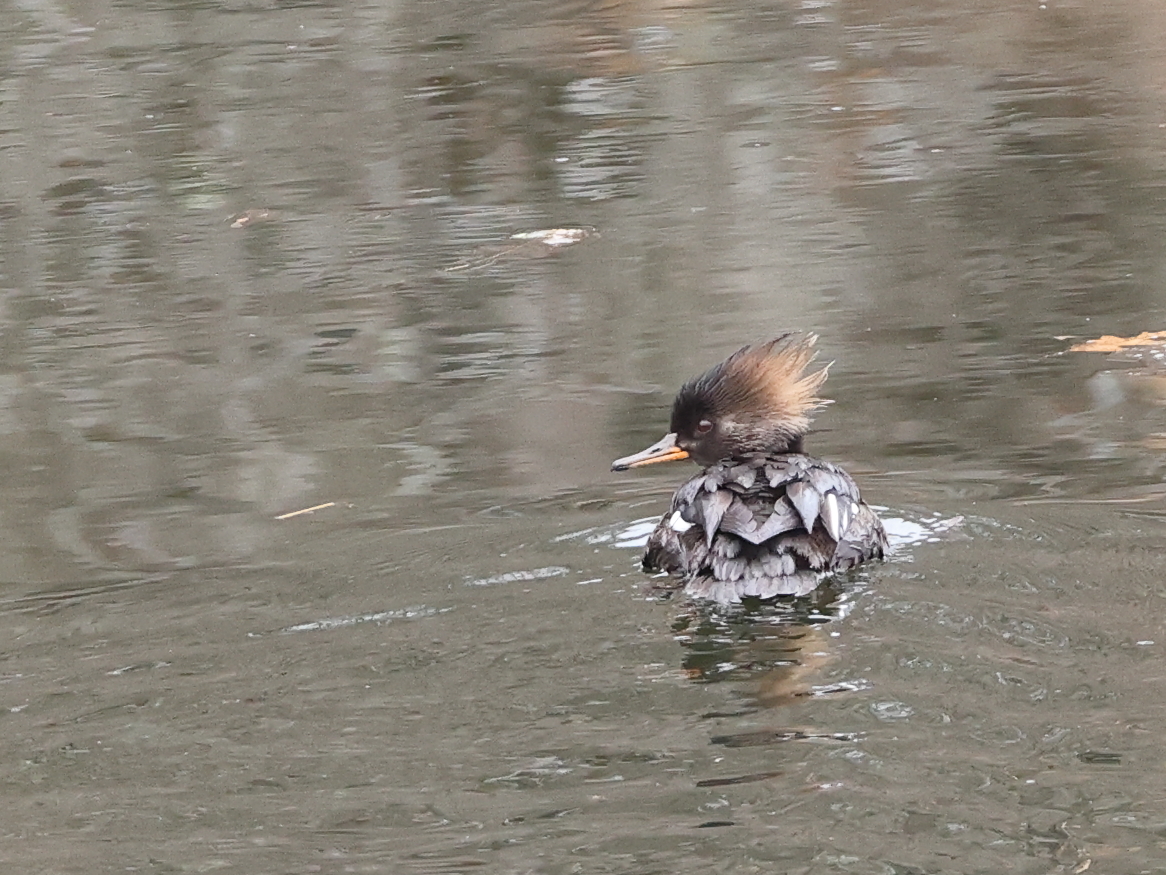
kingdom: Animalia
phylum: Chordata
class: Aves
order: Anseriformes
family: Anatidae
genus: Lophodytes
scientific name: Lophodytes cucullatus
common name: Hooded merganser
